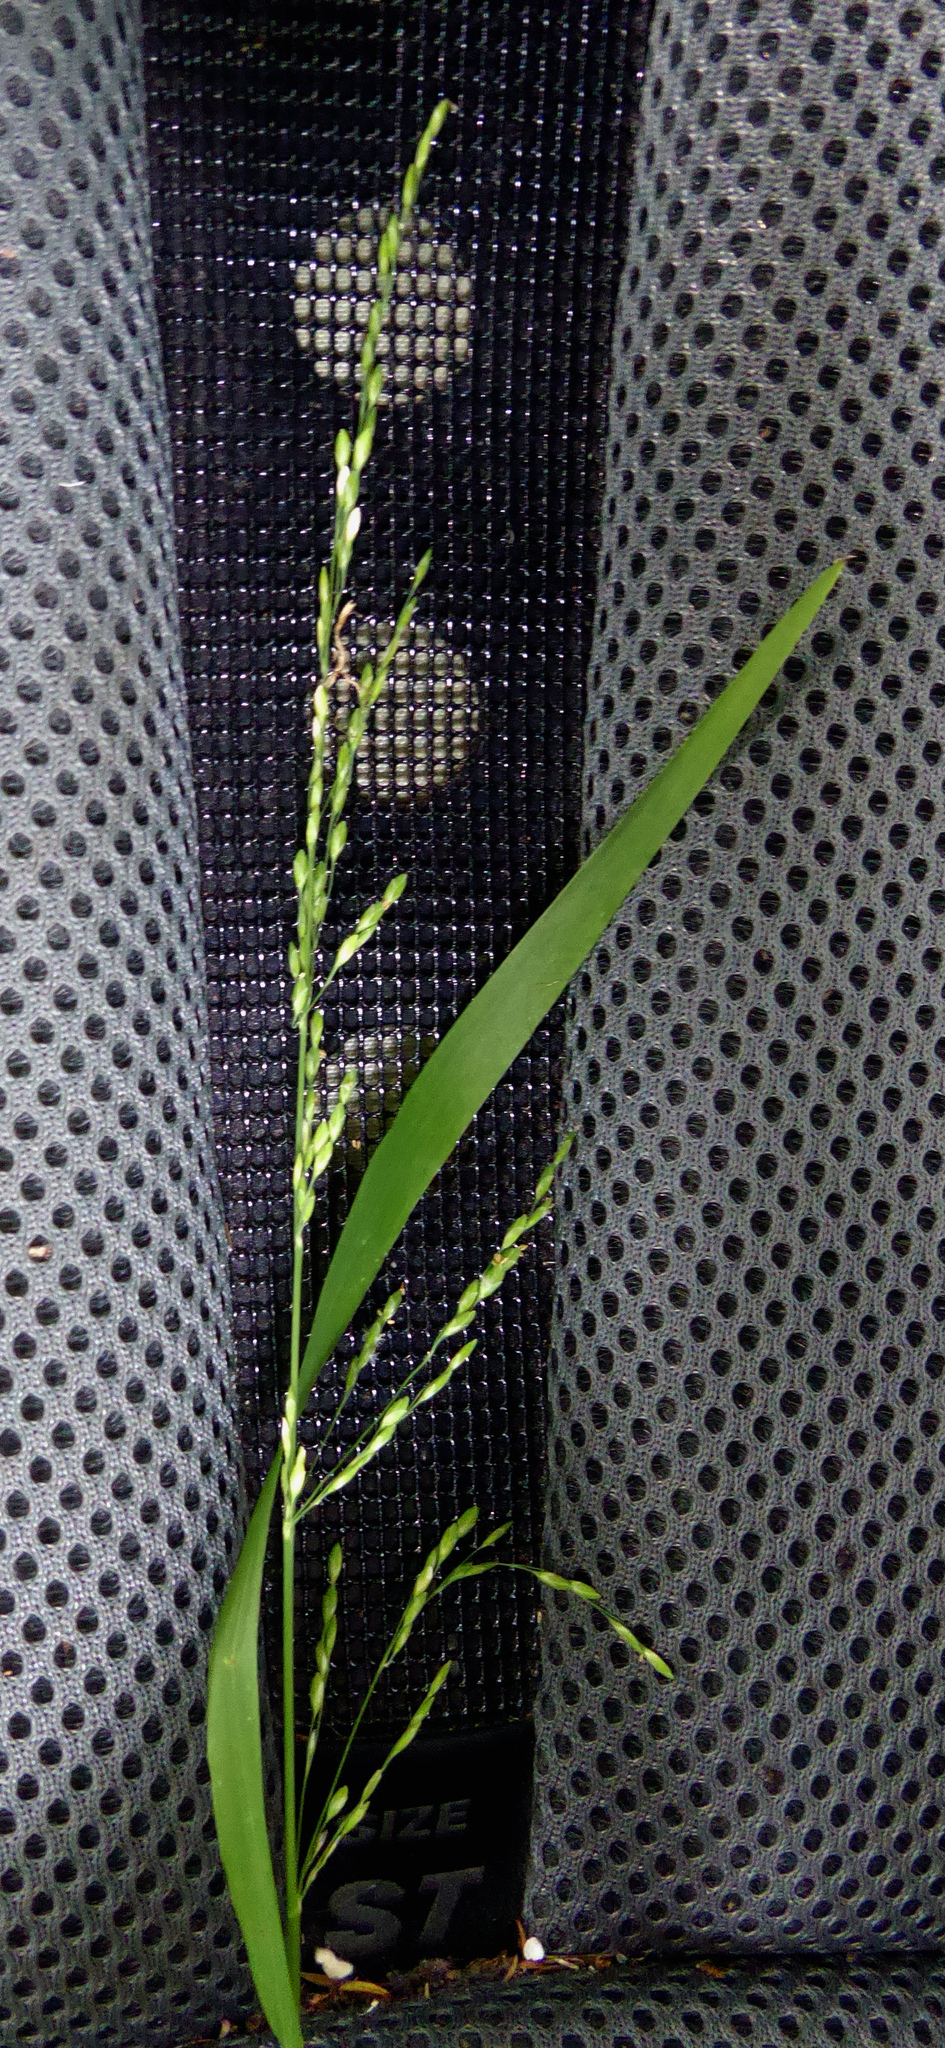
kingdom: Plantae
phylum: Tracheophyta
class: Liliopsida
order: Poales
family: Poaceae
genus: Ehrharta
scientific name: Ehrharta erecta
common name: Panic veldtgrass
